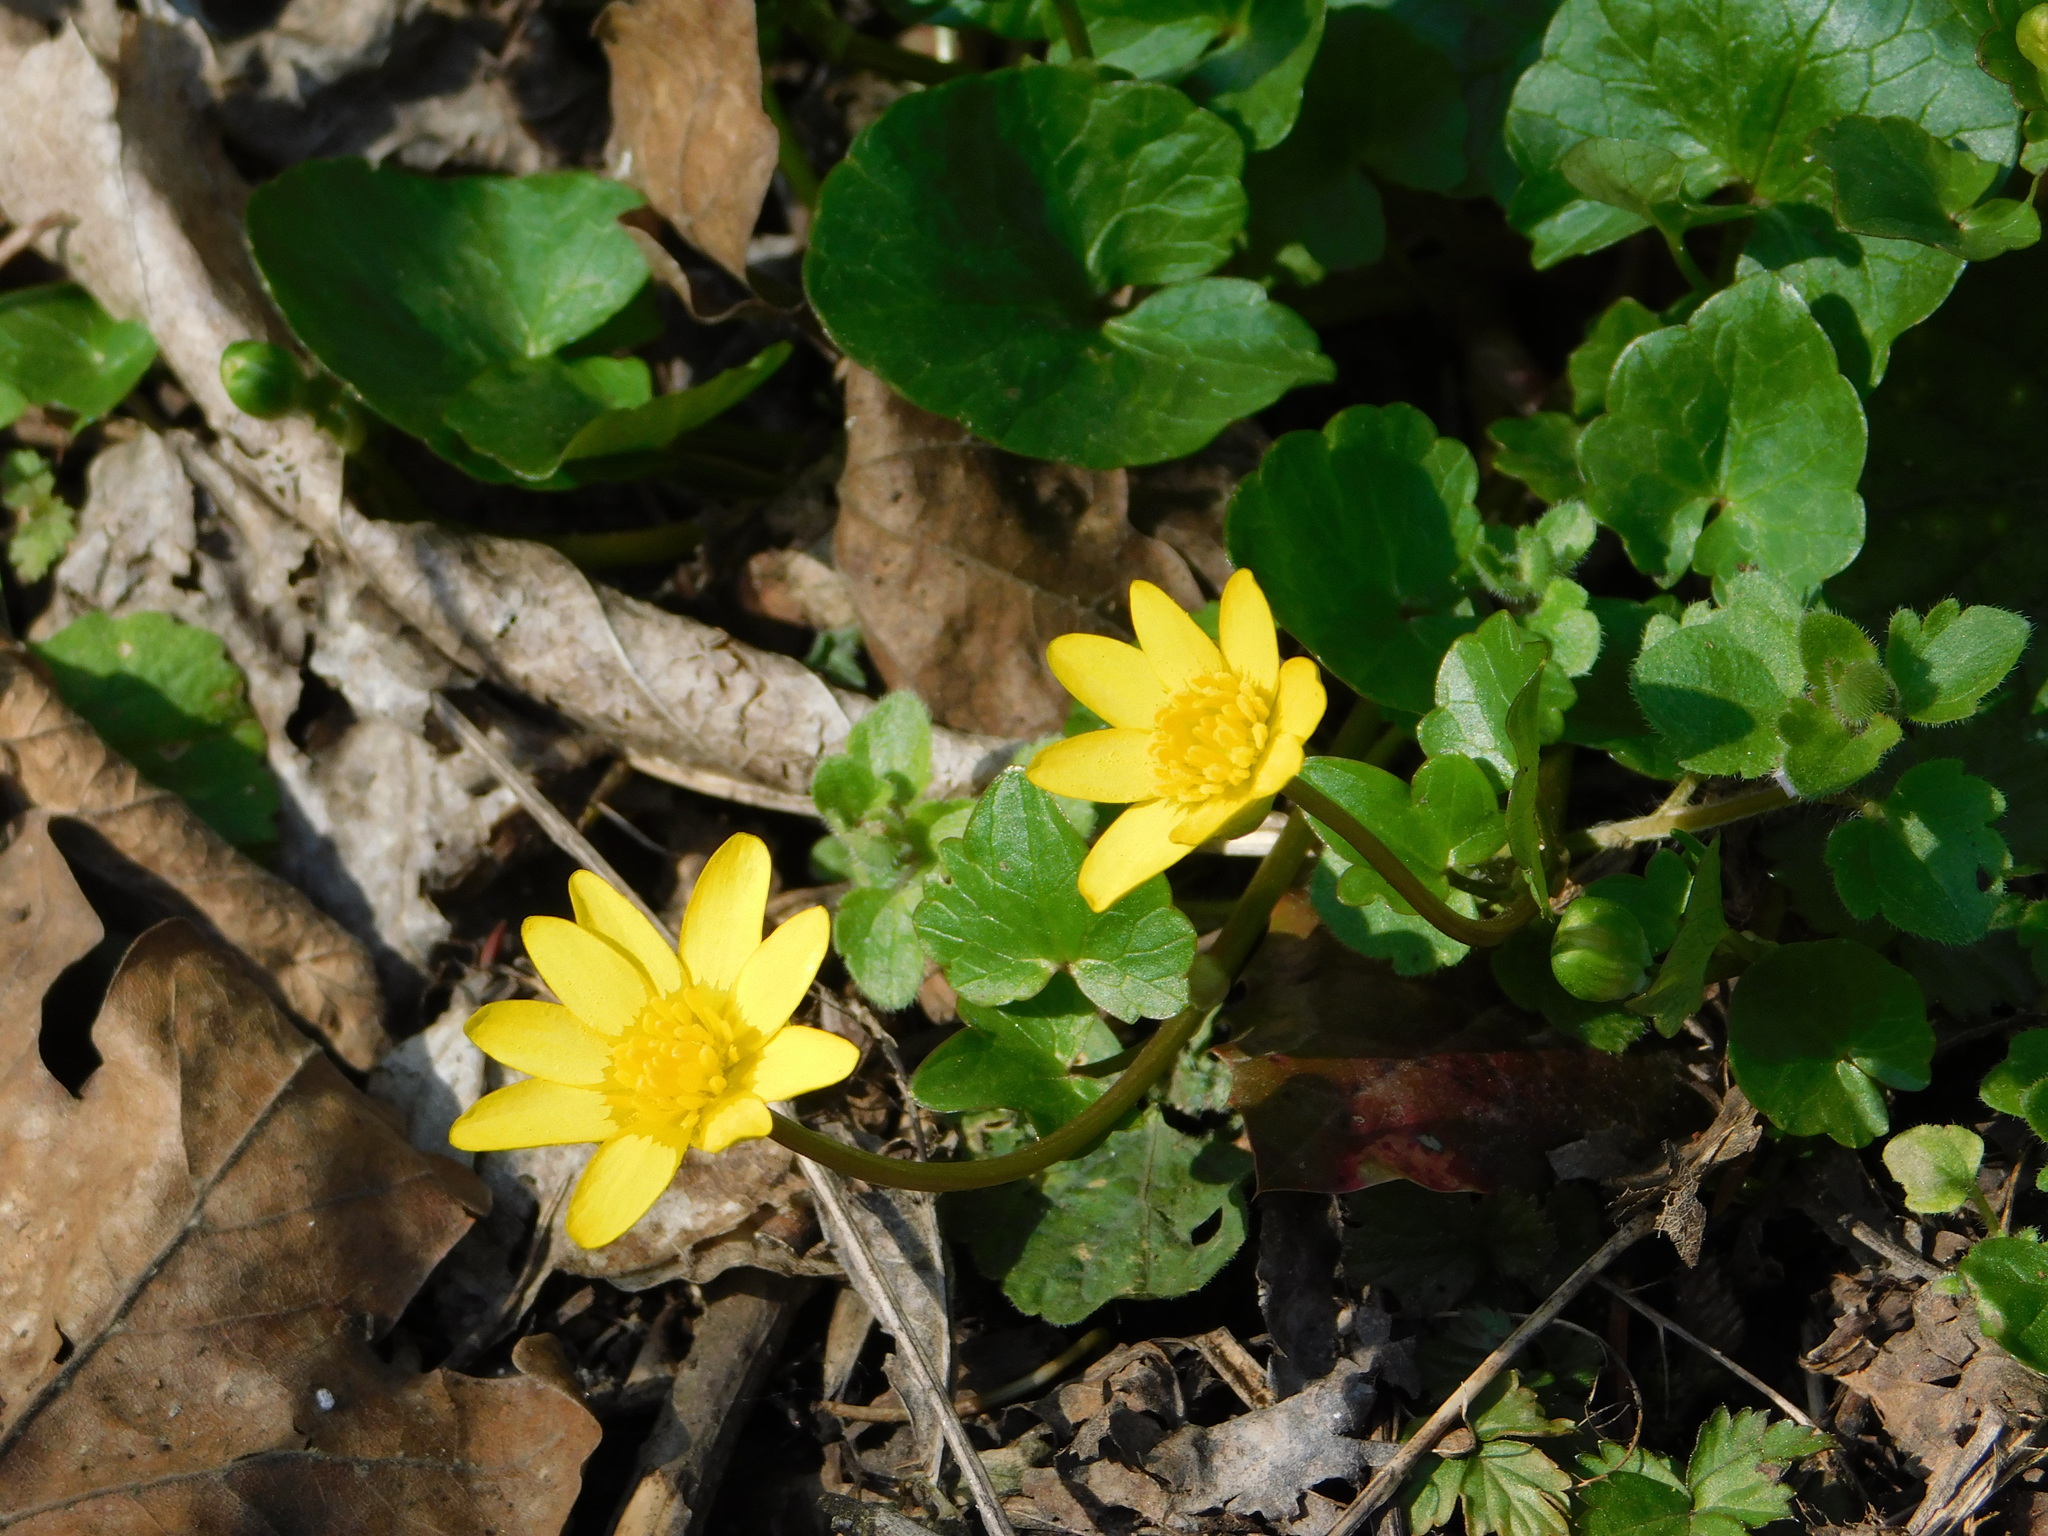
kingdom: Plantae
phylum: Tracheophyta
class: Magnoliopsida
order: Ranunculales
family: Ranunculaceae
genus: Ficaria
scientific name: Ficaria verna
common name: Lesser celandine
